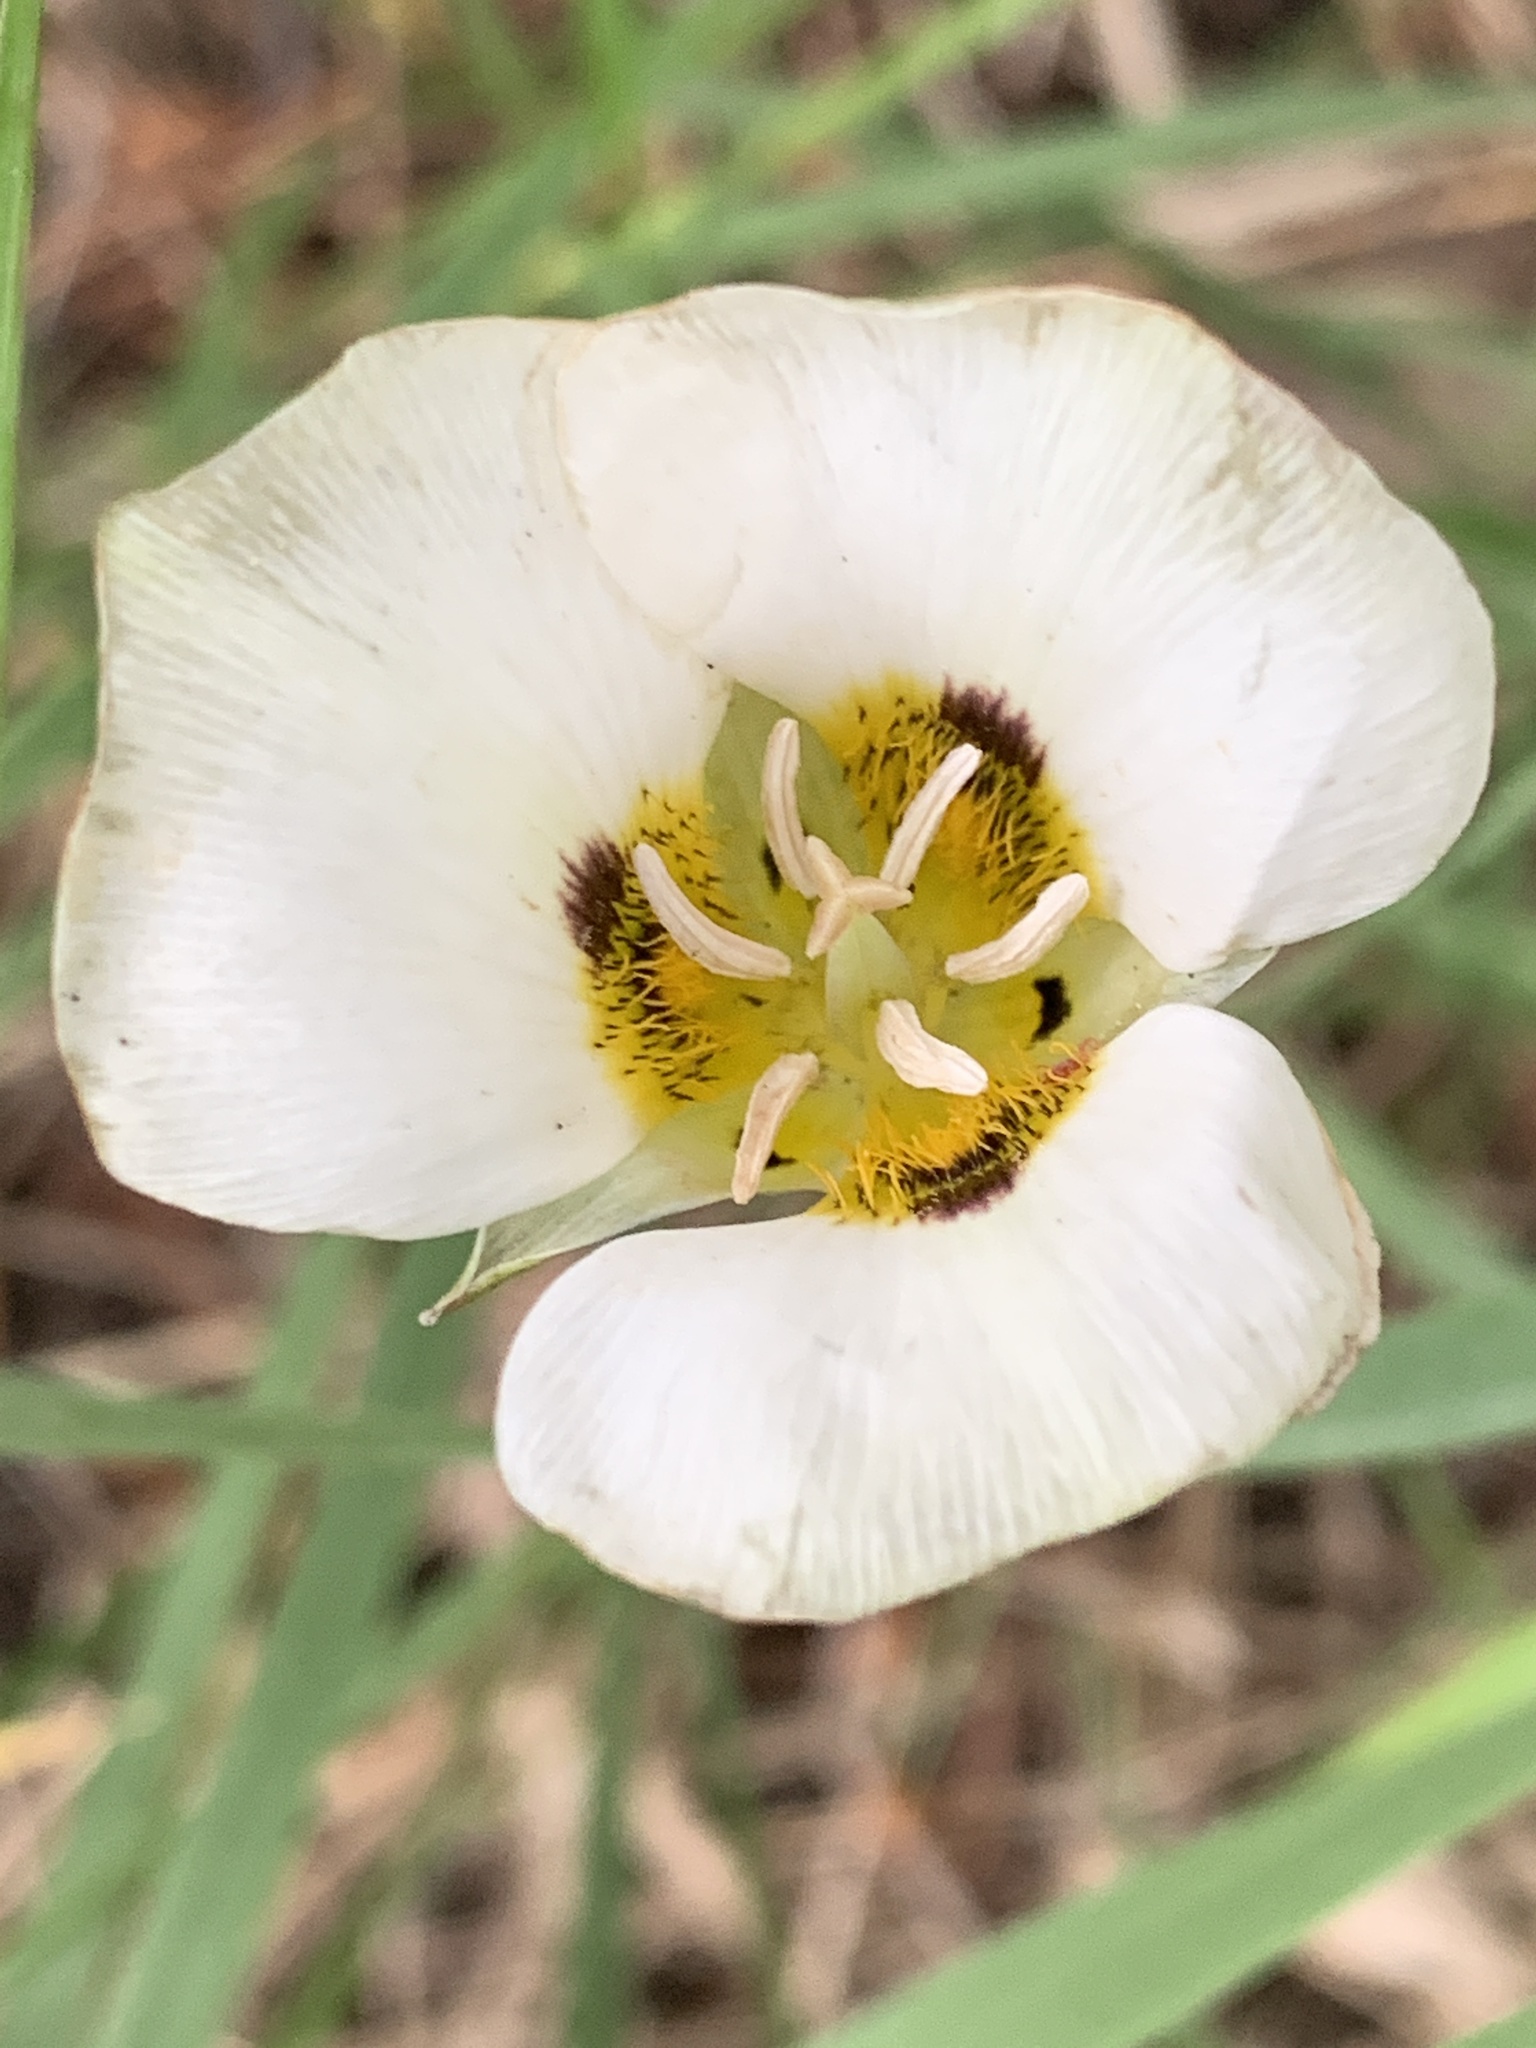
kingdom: Plantae
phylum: Tracheophyta
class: Liliopsida
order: Liliales
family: Liliaceae
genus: Calochortus
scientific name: Calochortus leichtlinii
